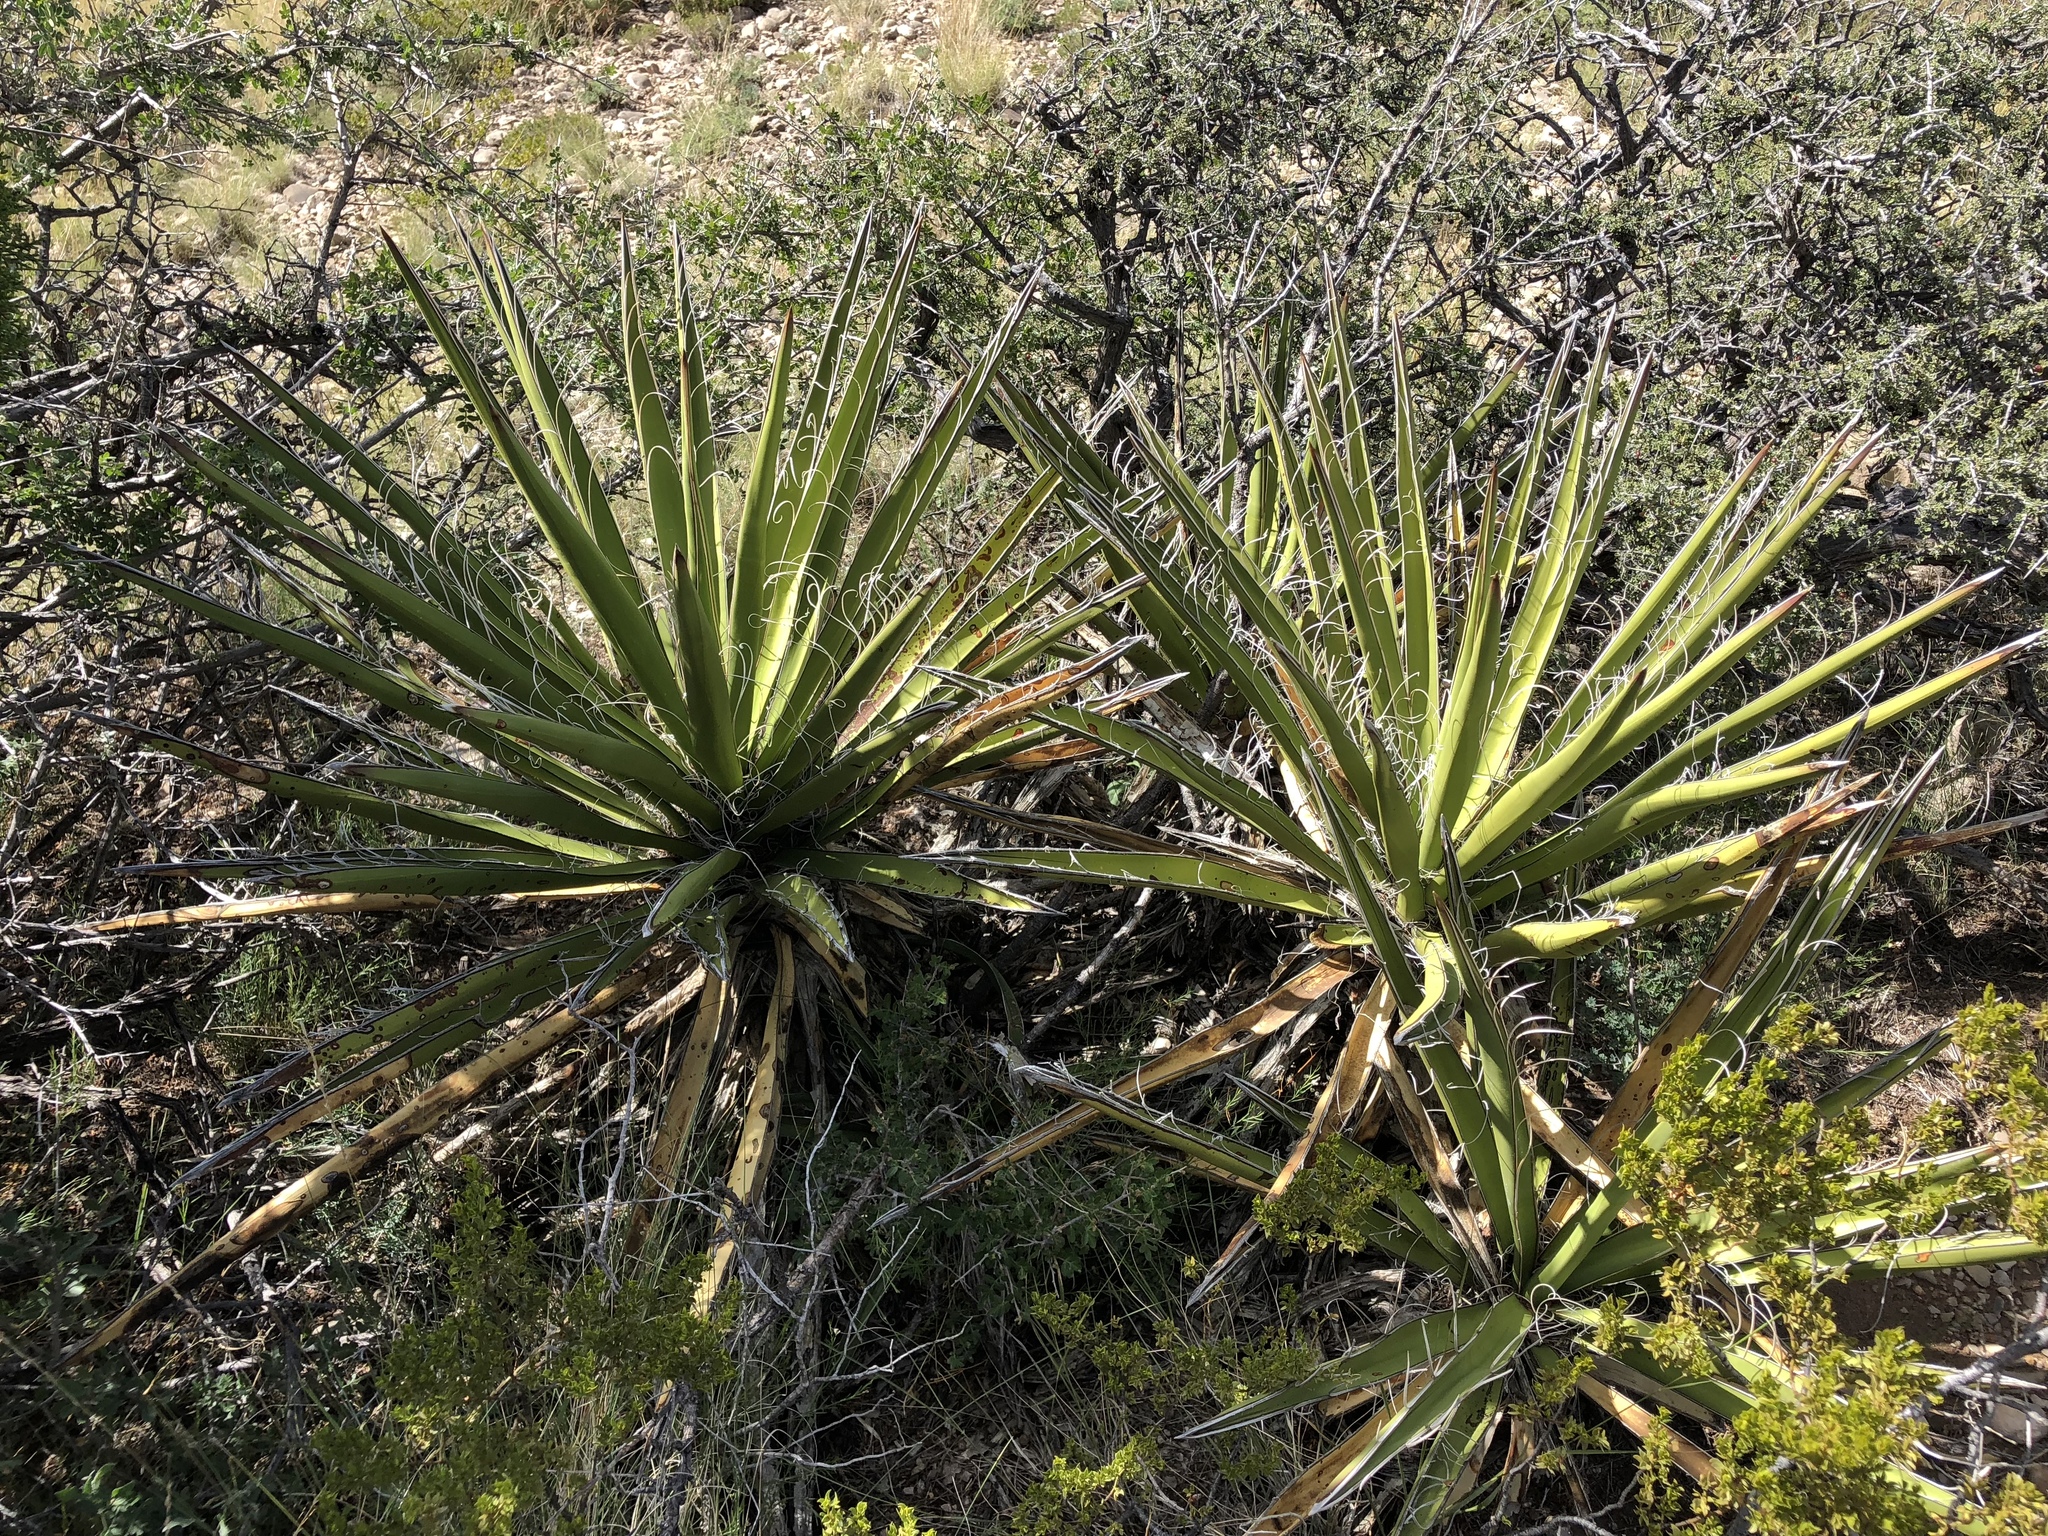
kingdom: Plantae
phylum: Tracheophyta
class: Liliopsida
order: Asparagales
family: Asparagaceae
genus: Yucca
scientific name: Yucca baccata
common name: Banana yucca
